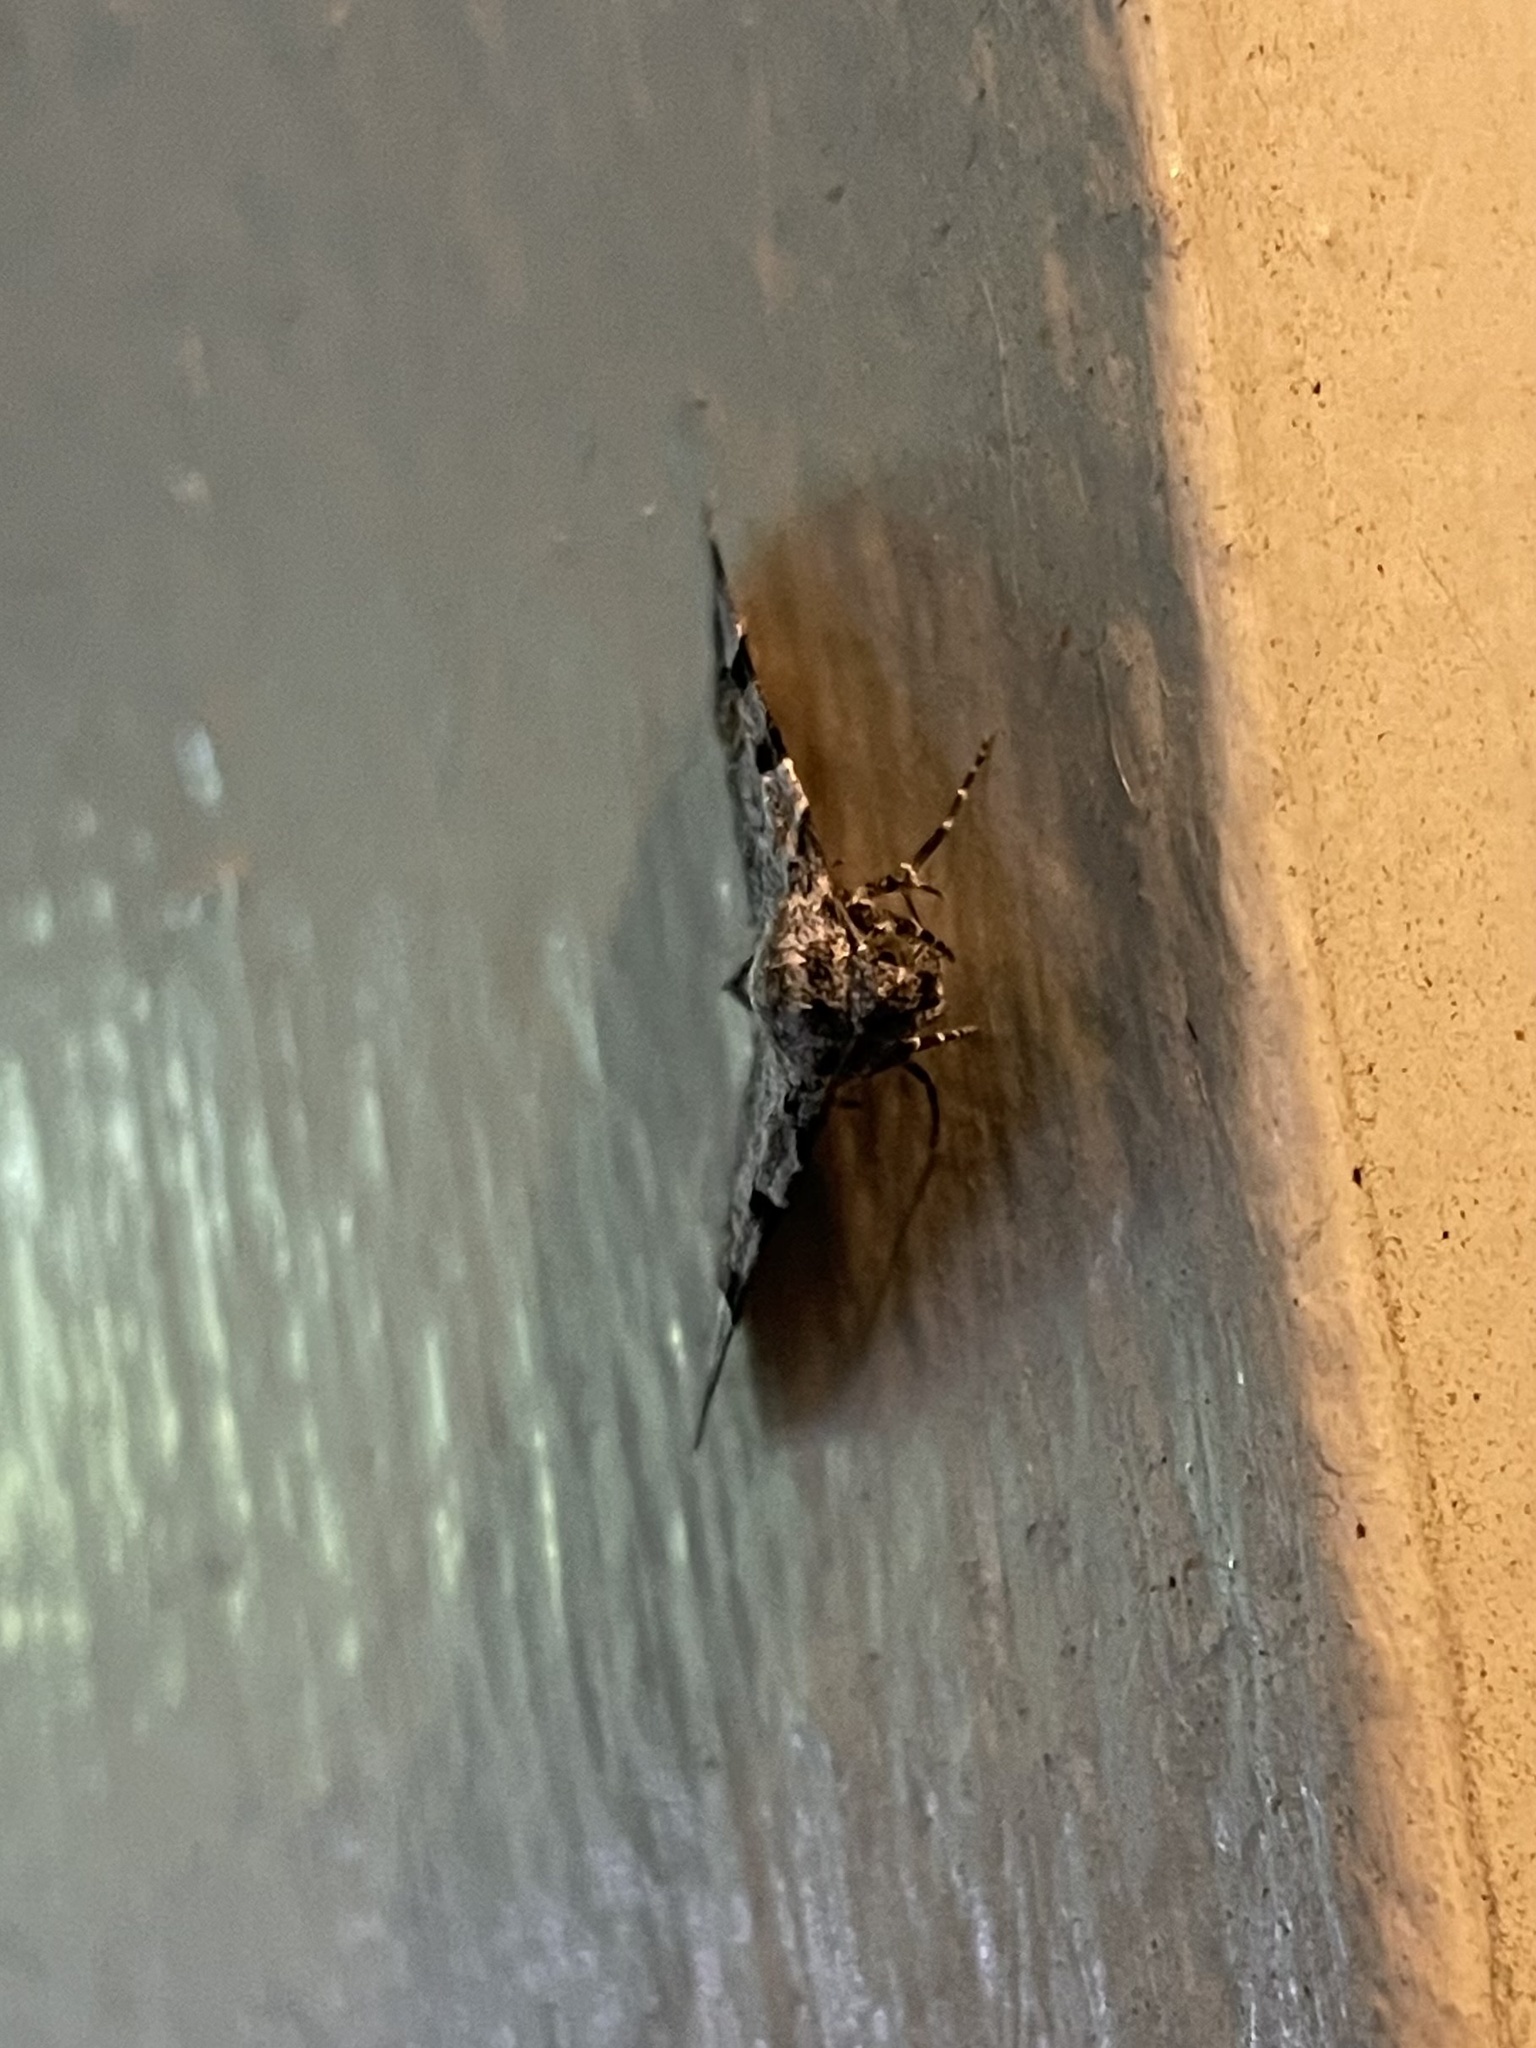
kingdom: Animalia
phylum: Arthropoda
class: Insecta
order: Lepidoptera
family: Erebidae
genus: Idia
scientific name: Idia americalis
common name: American idia moth
